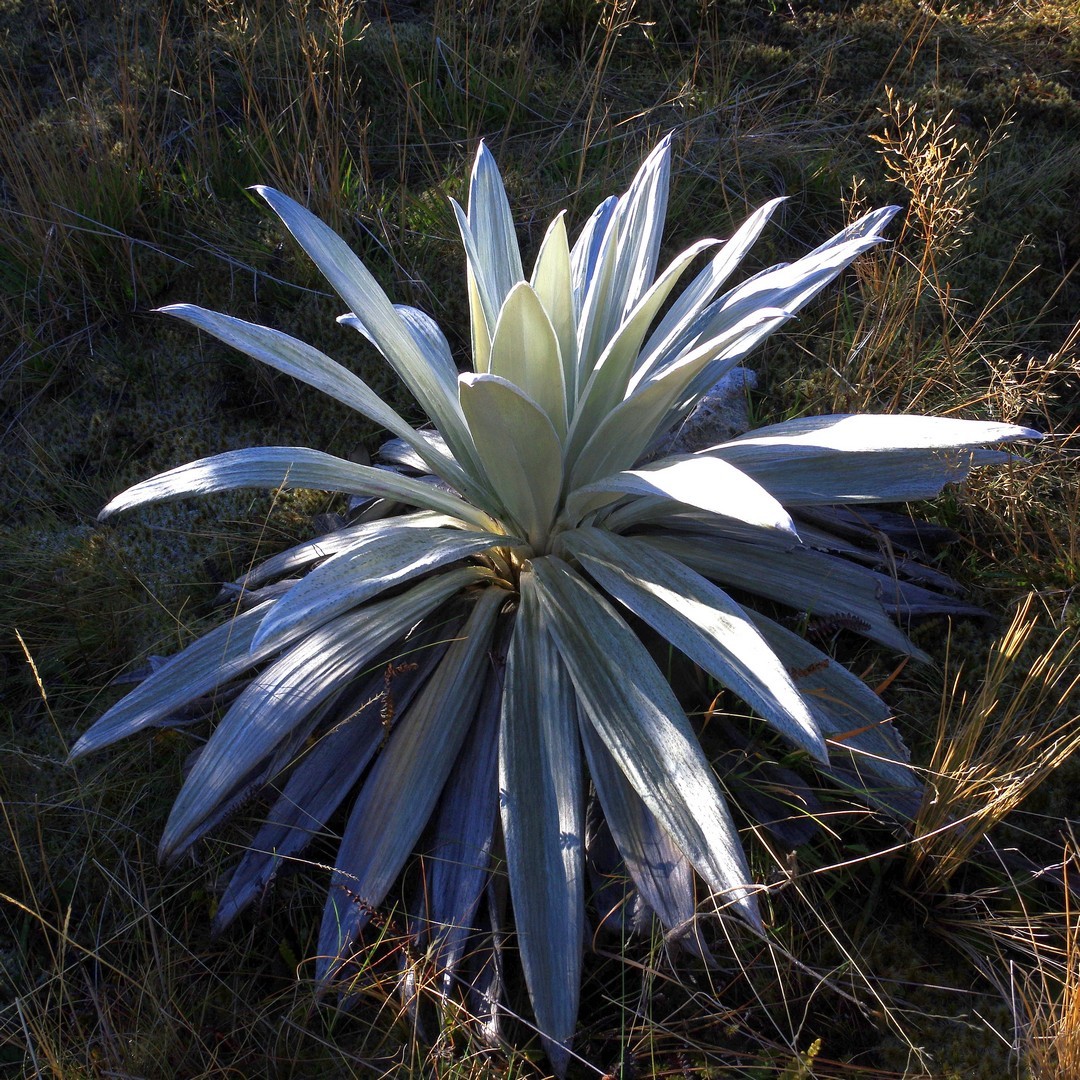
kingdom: Plantae
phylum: Tracheophyta
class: Magnoliopsida
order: Asterales
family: Asteraceae
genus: Celmisia
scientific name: Celmisia semicordata
